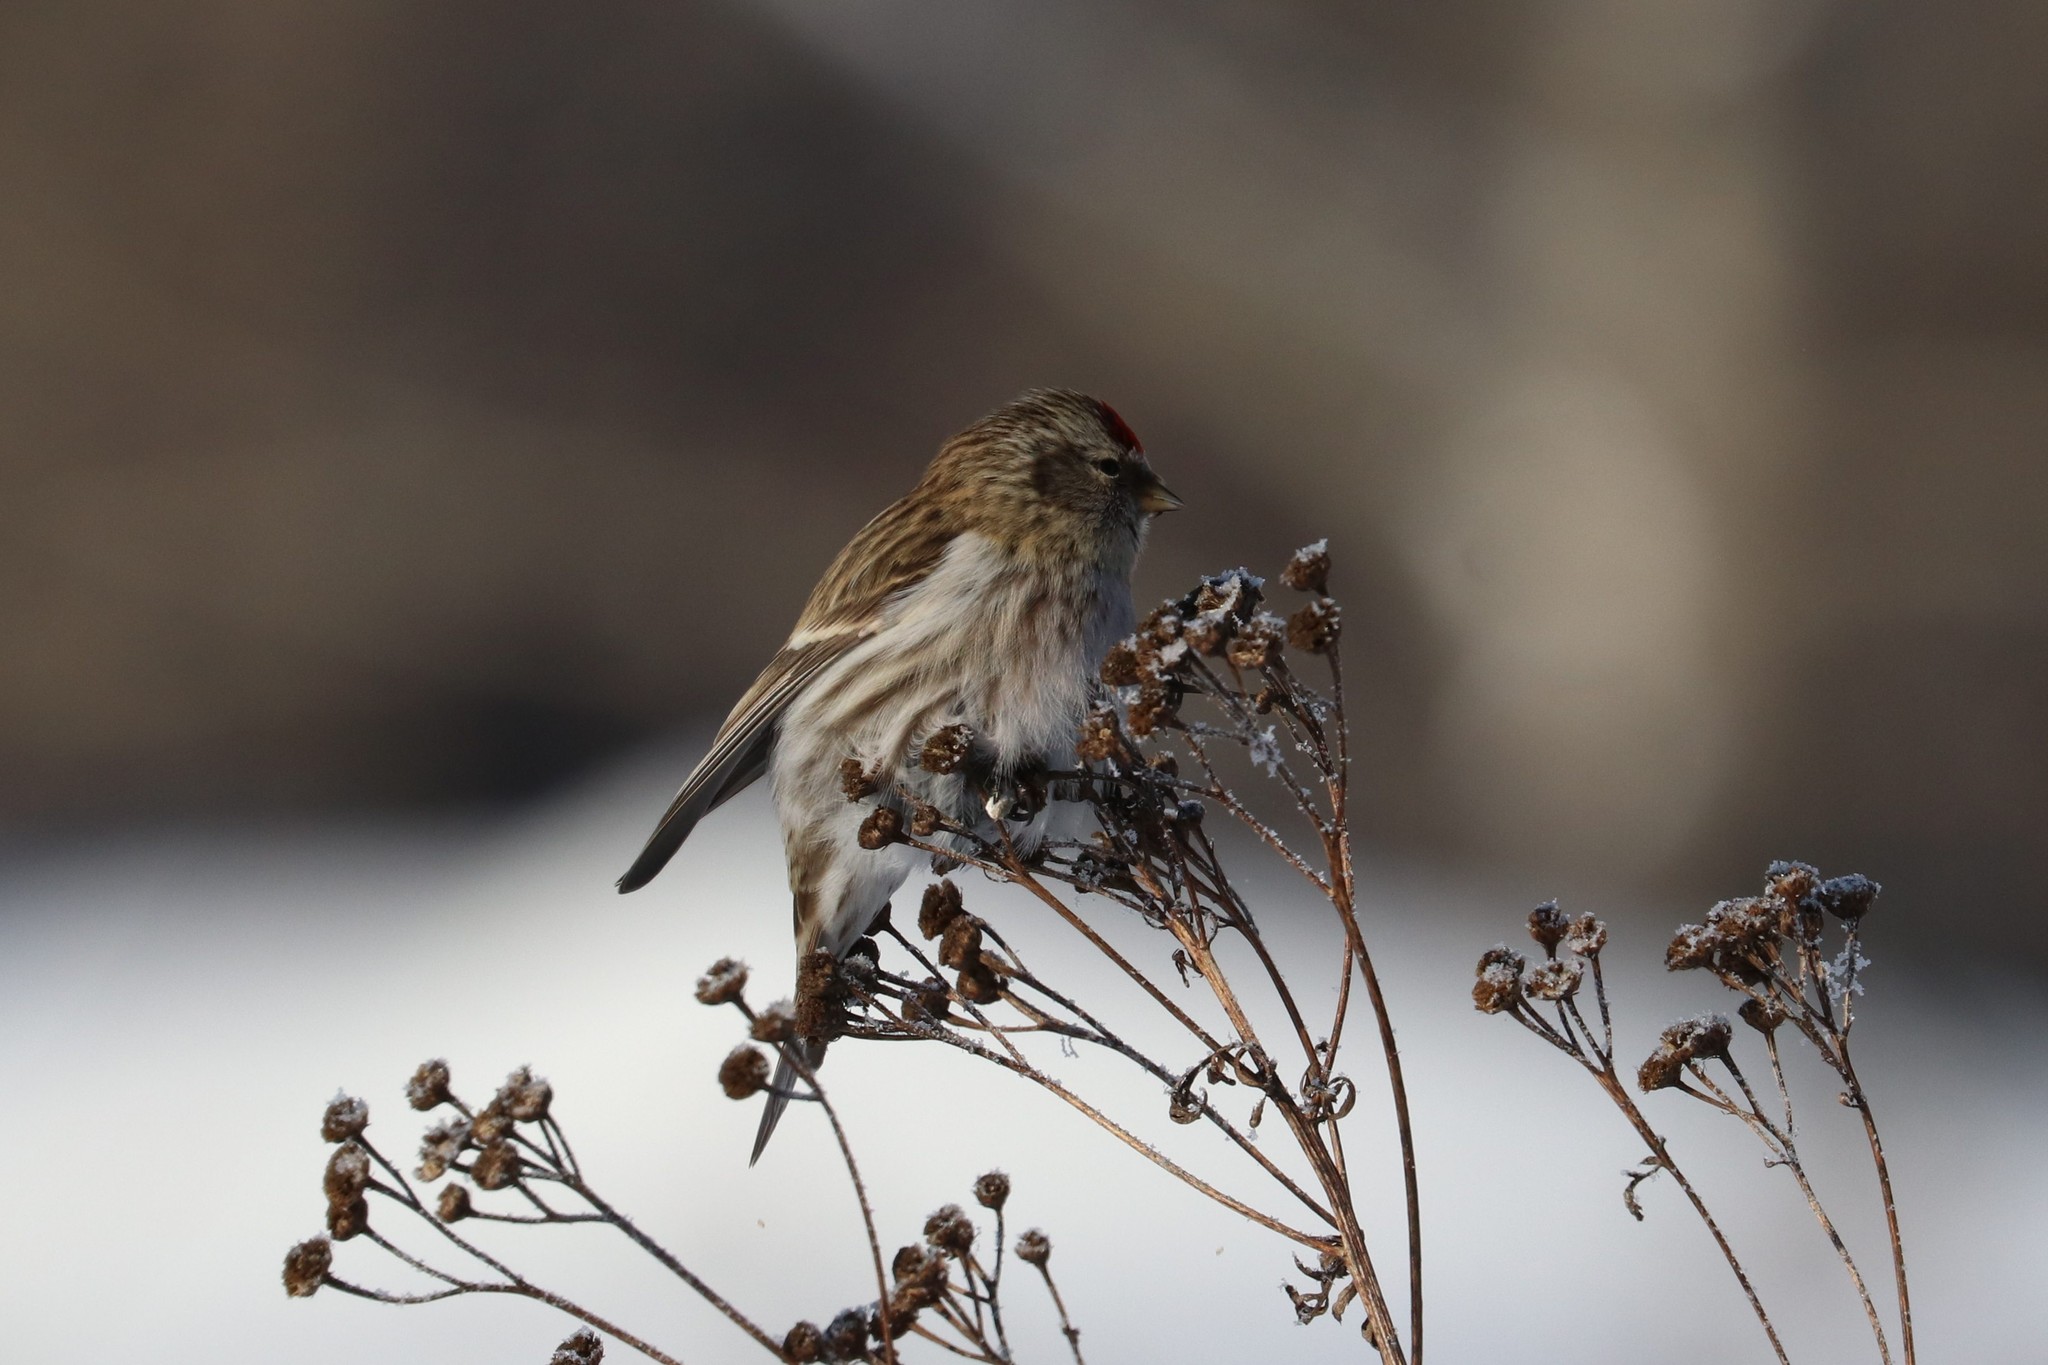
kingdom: Animalia
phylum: Chordata
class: Aves
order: Passeriformes
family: Fringillidae
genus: Acanthis
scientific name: Acanthis flammea
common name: Common redpoll
